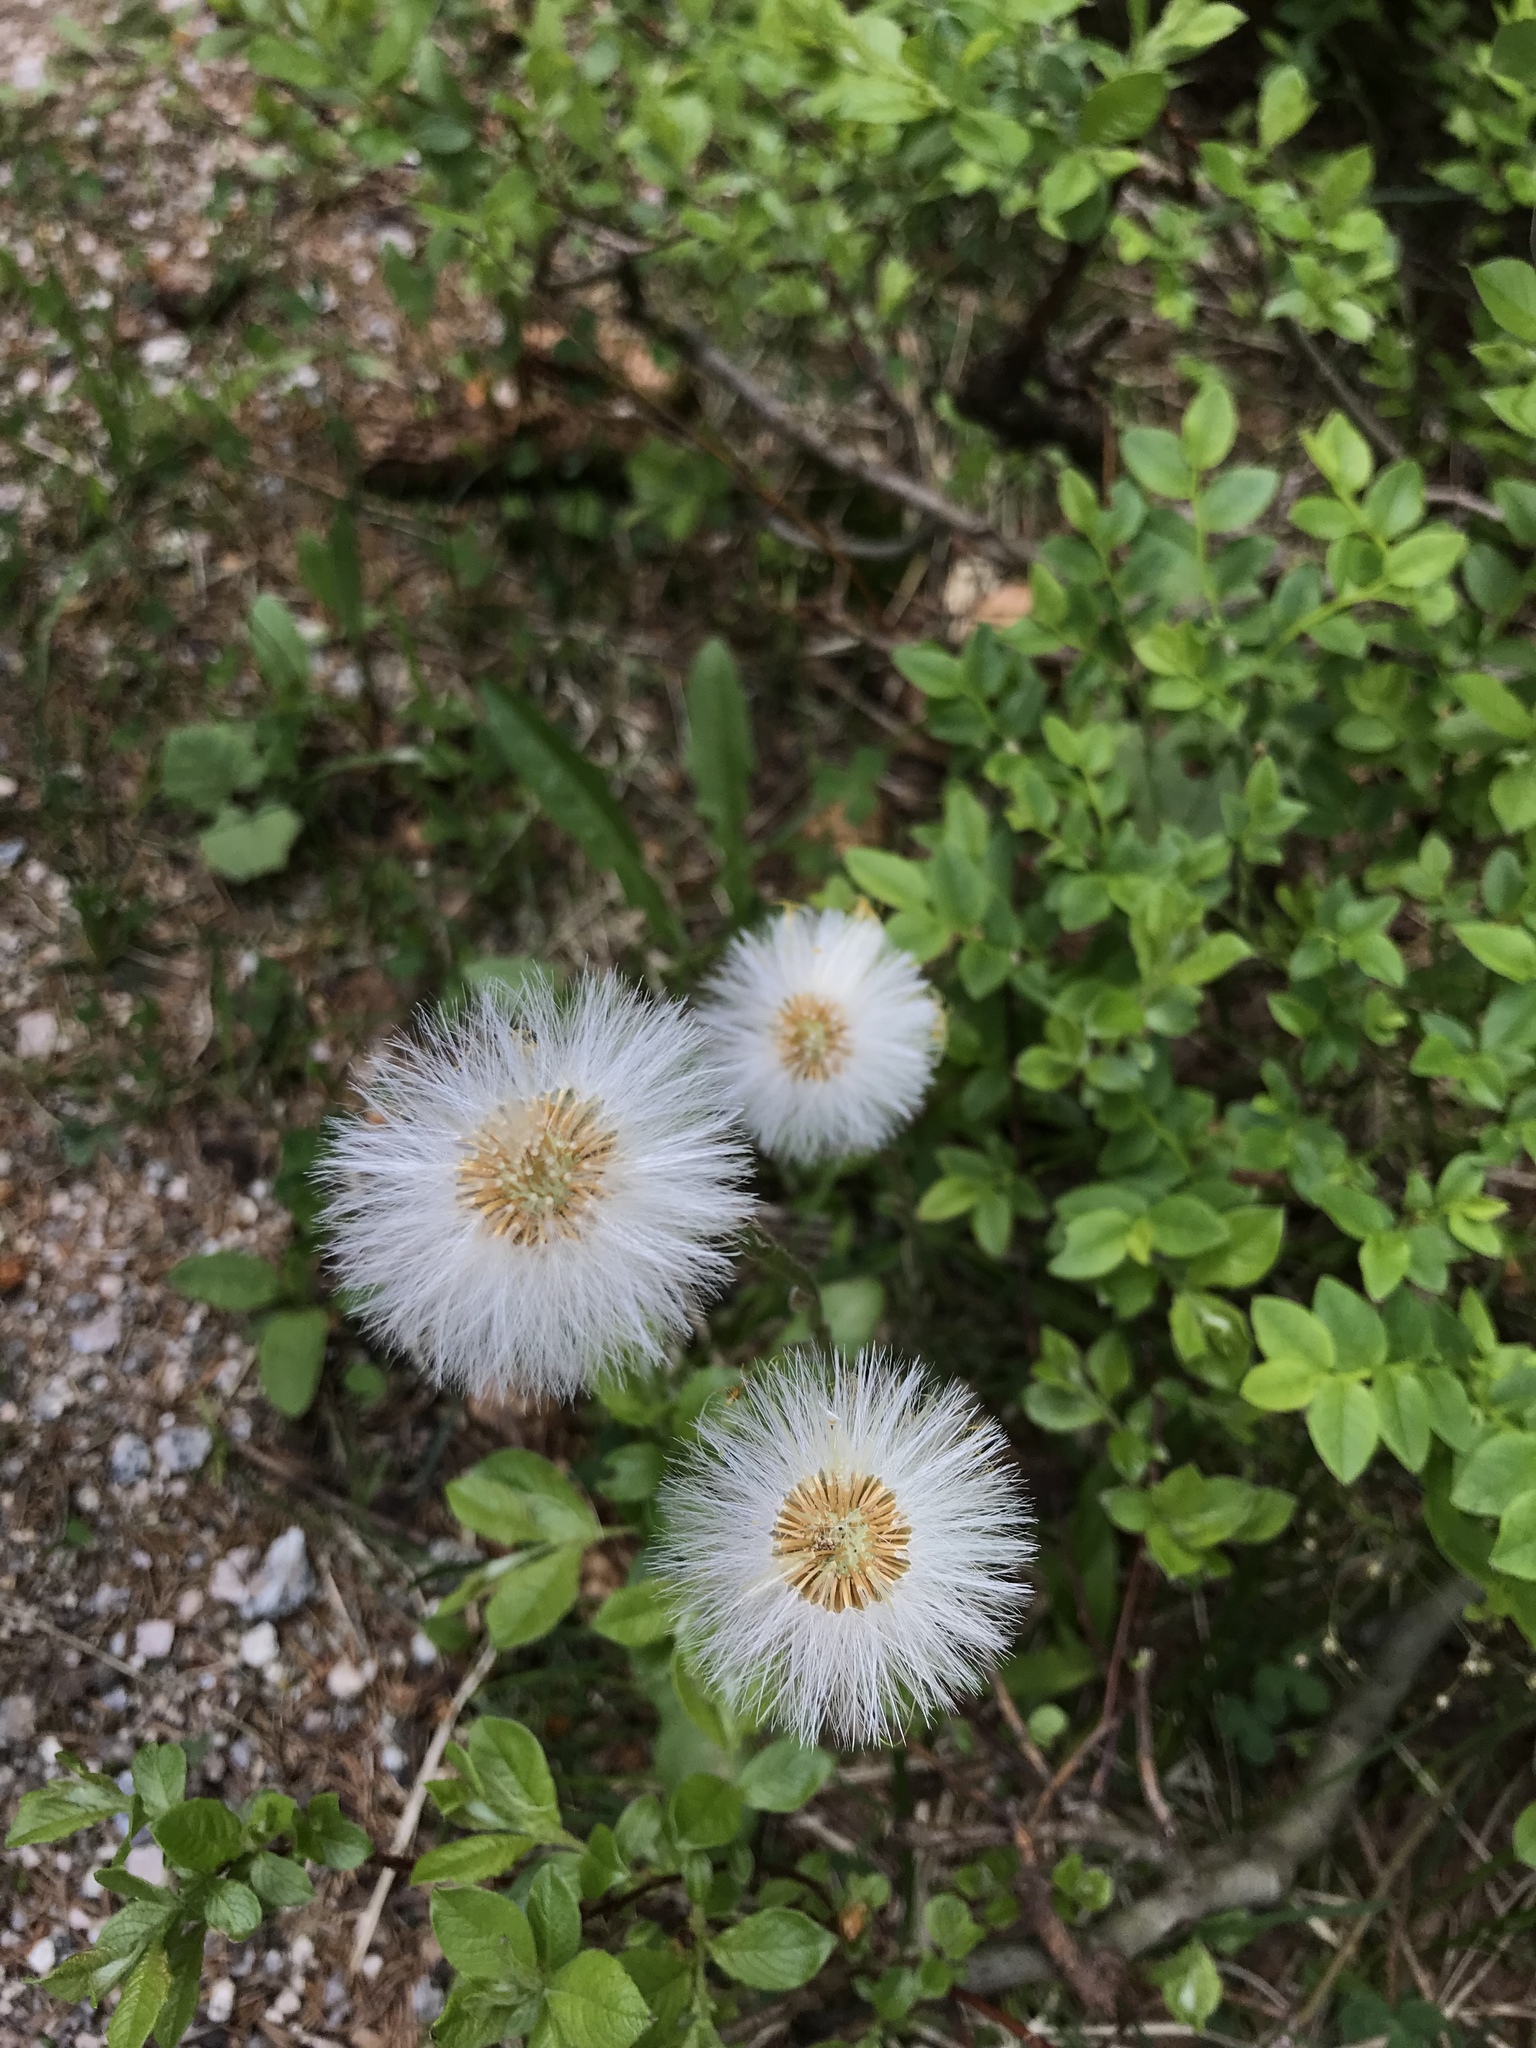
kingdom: Plantae
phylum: Tracheophyta
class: Magnoliopsida
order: Asterales
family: Asteraceae
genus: Tussilago
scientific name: Tussilago farfara
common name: Coltsfoot
